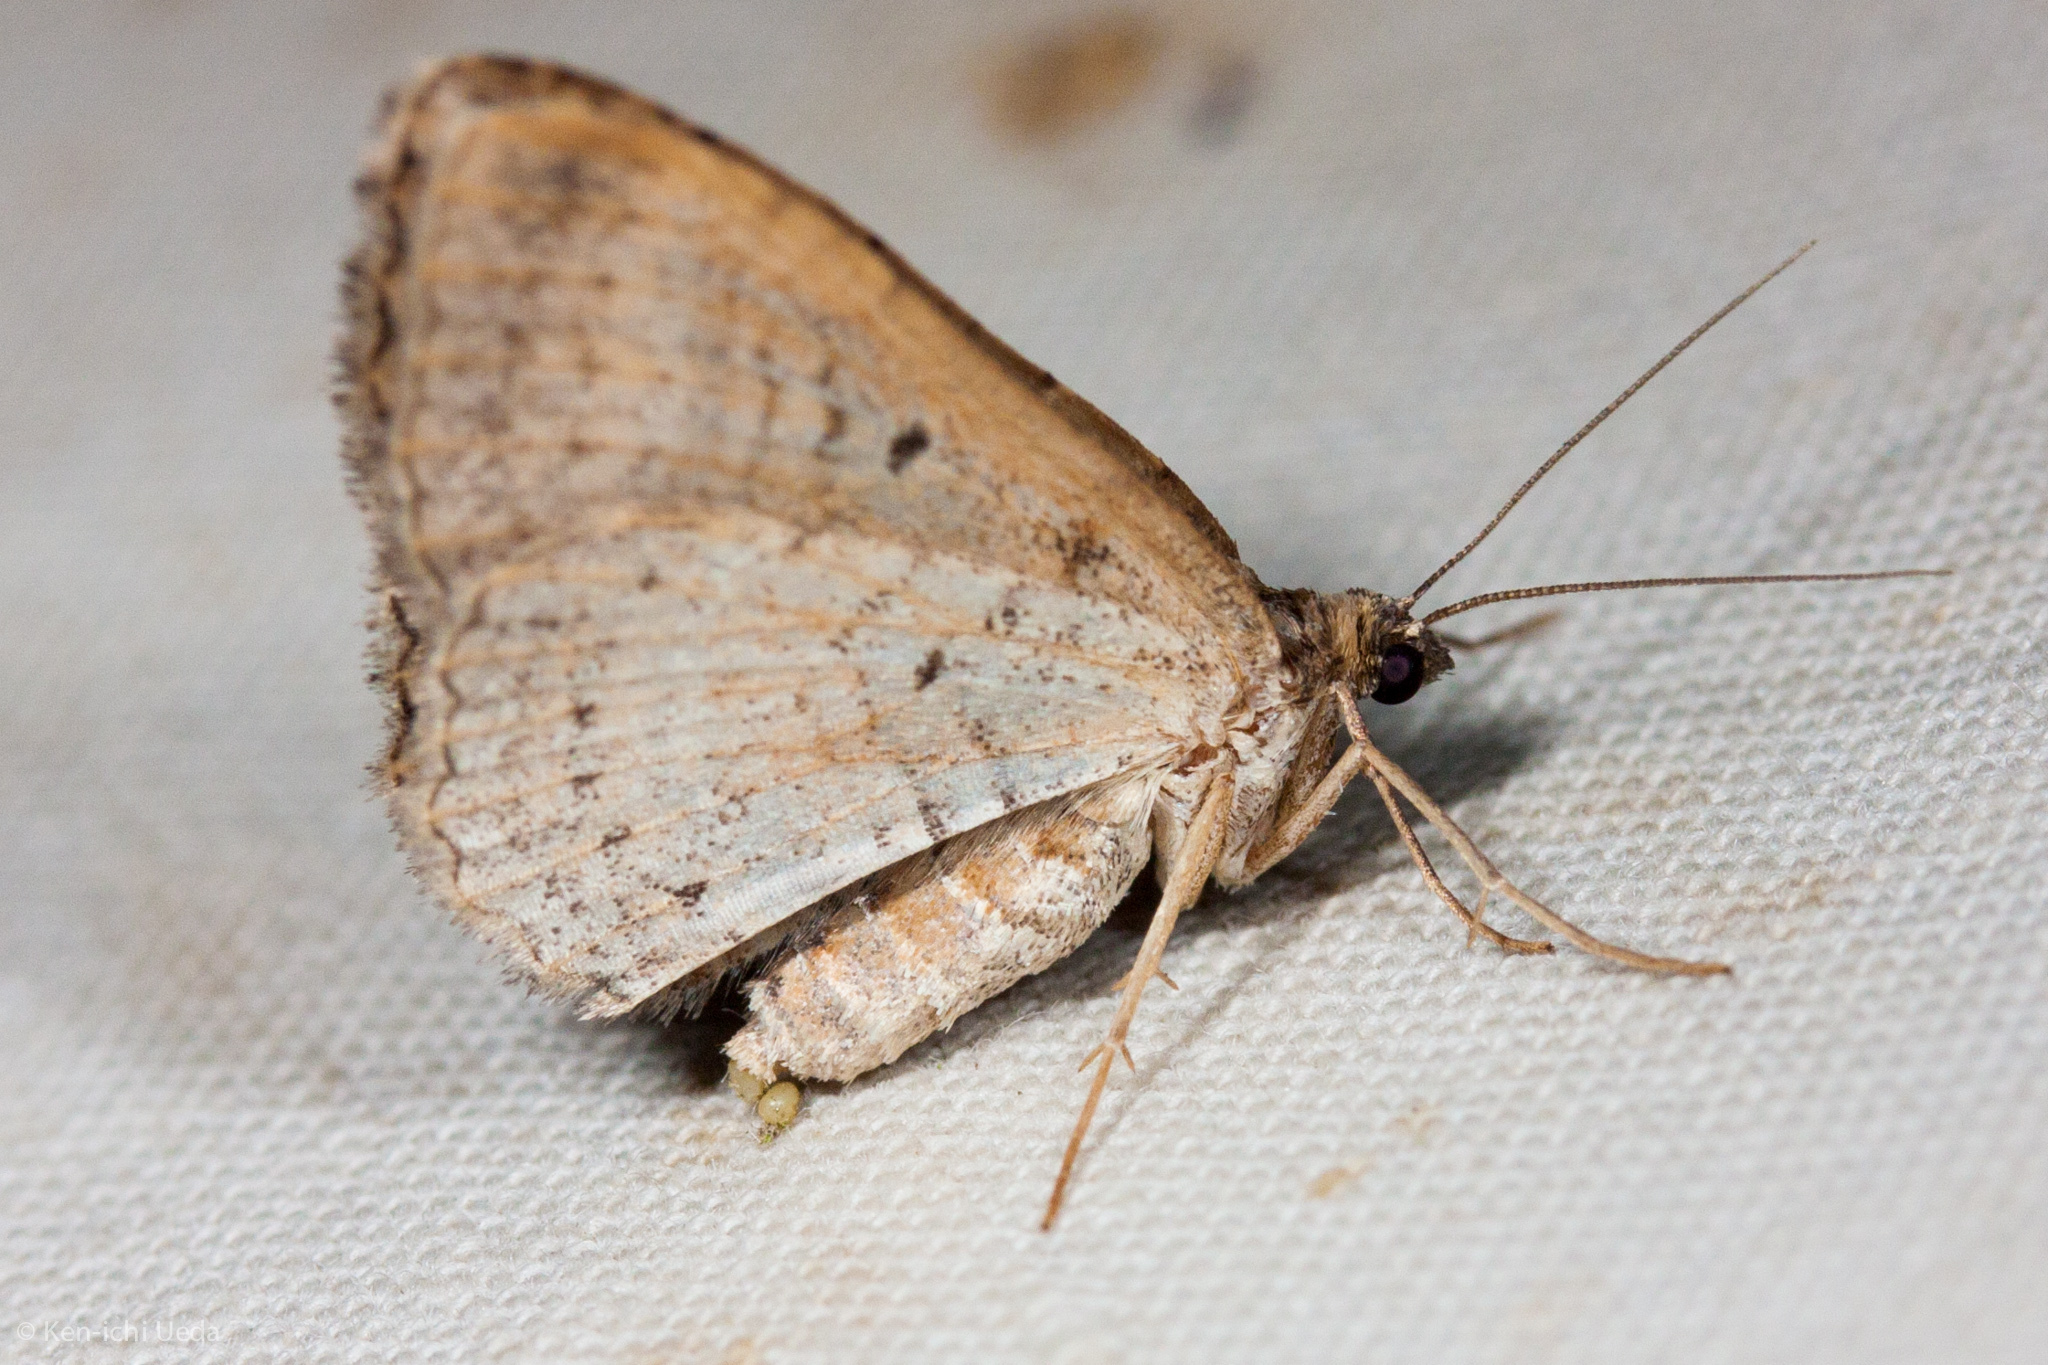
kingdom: Animalia
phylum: Arthropoda
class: Insecta
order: Lepidoptera
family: Geometridae
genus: Costaconvexa
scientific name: Costaconvexa centrostrigaria
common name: Bent-line carpet
